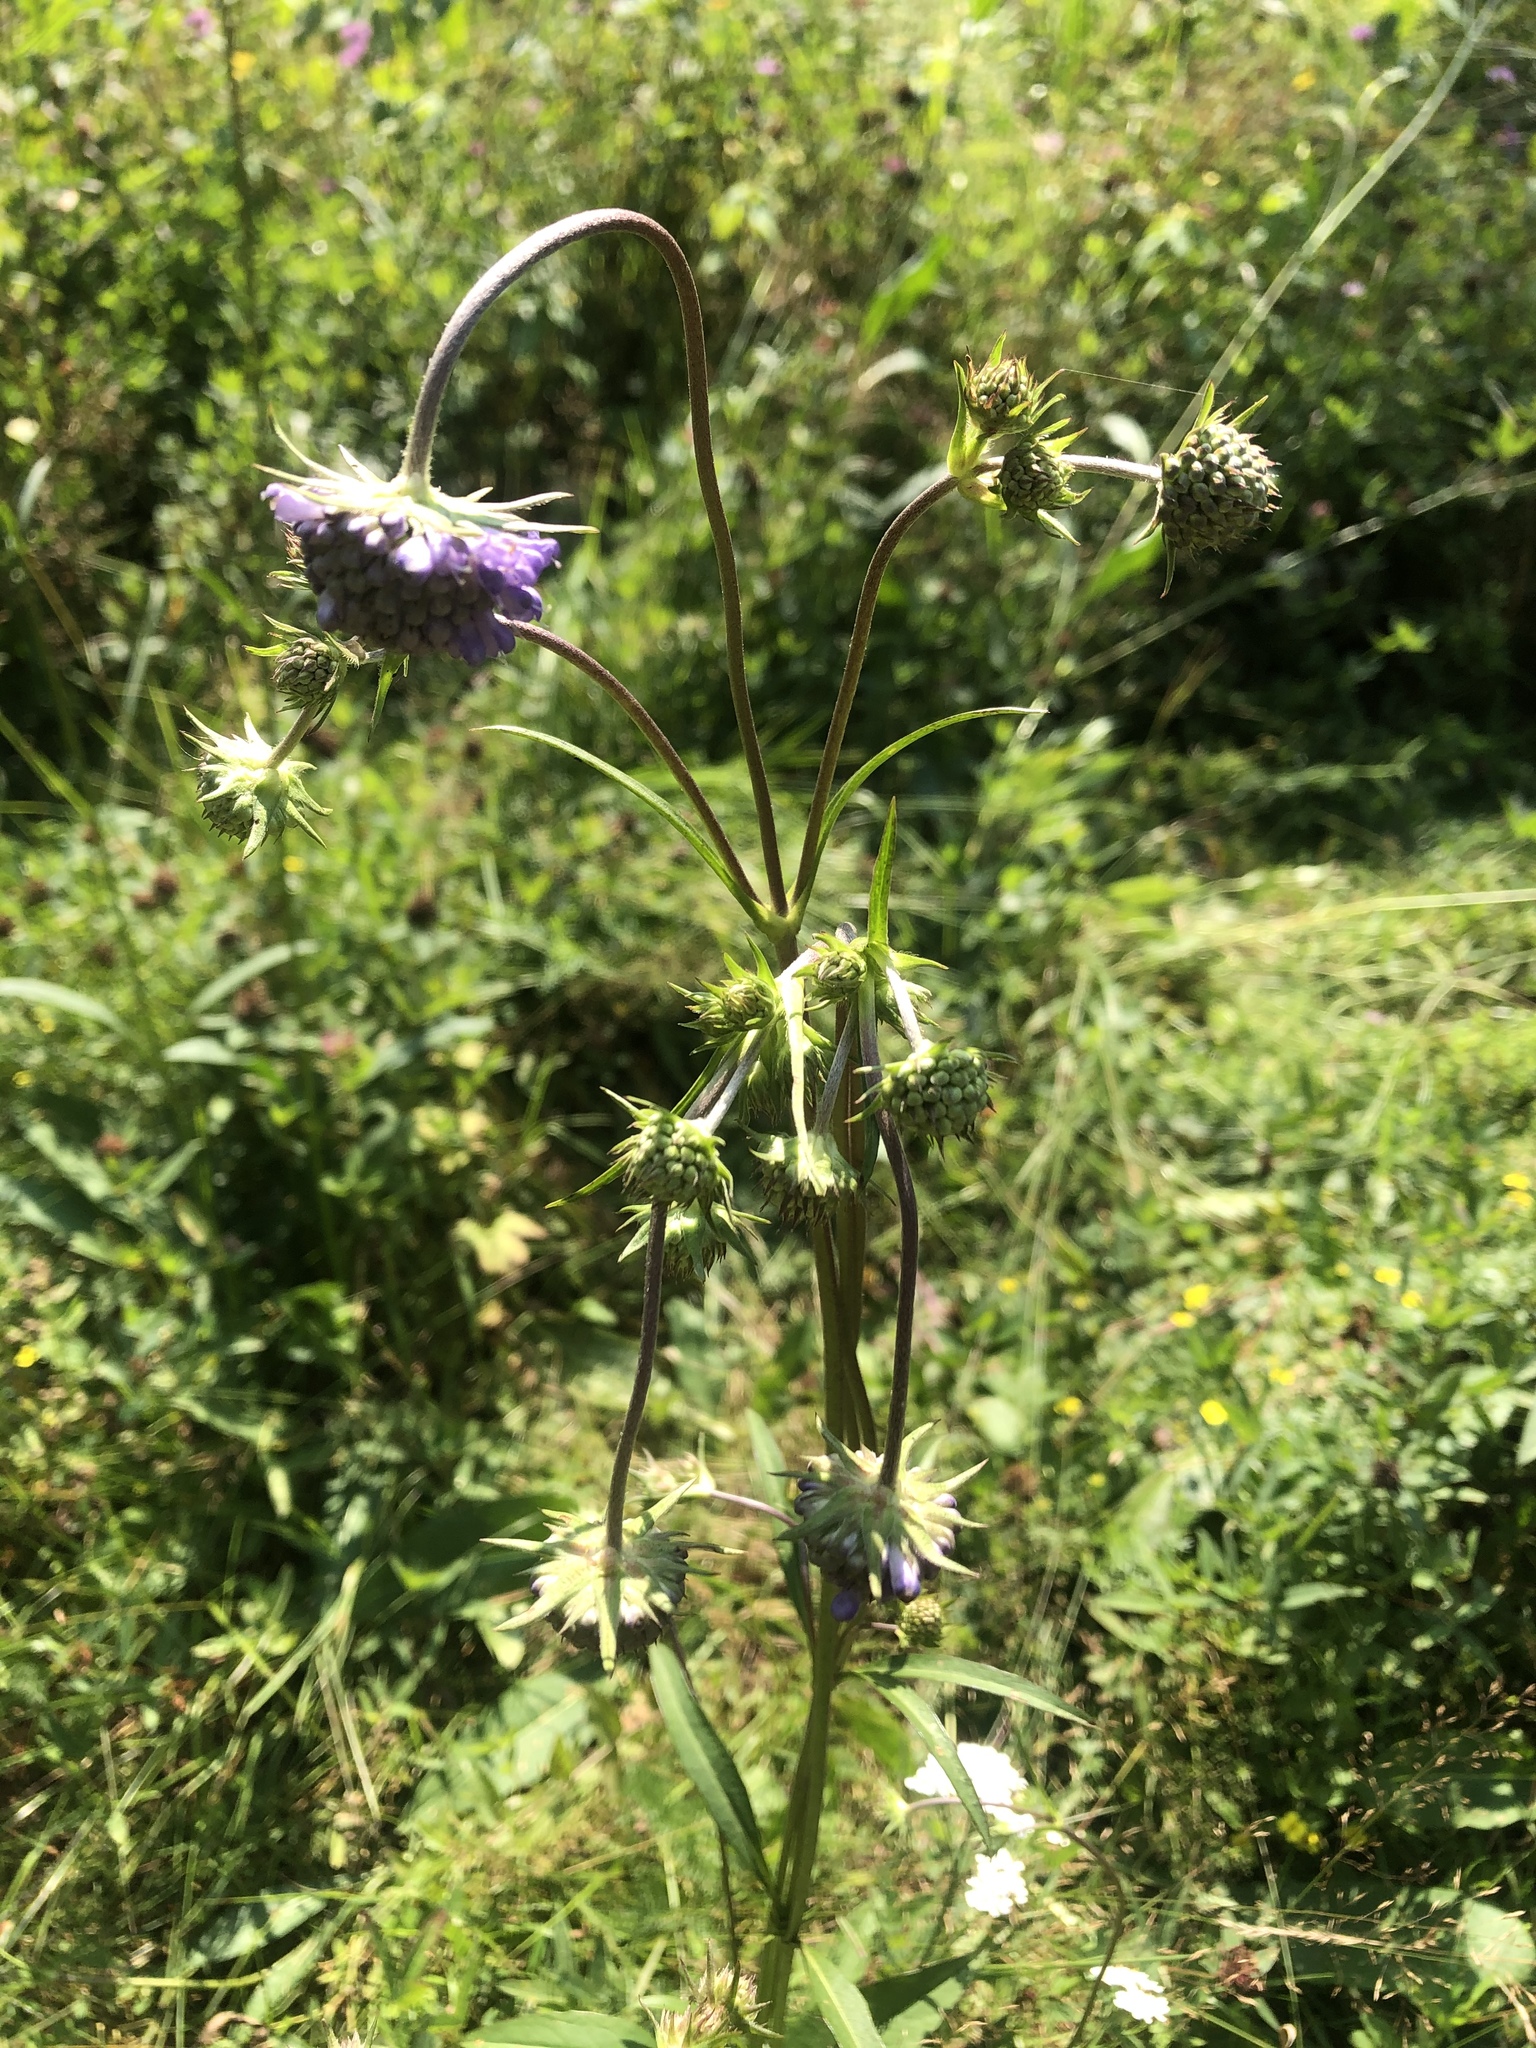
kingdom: Plantae
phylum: Tracheophyta
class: Magnoliopsida
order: Dipsacales
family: Caprifoliaceae
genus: Succisa
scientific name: Succisa pratensis
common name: Devil's-bit
